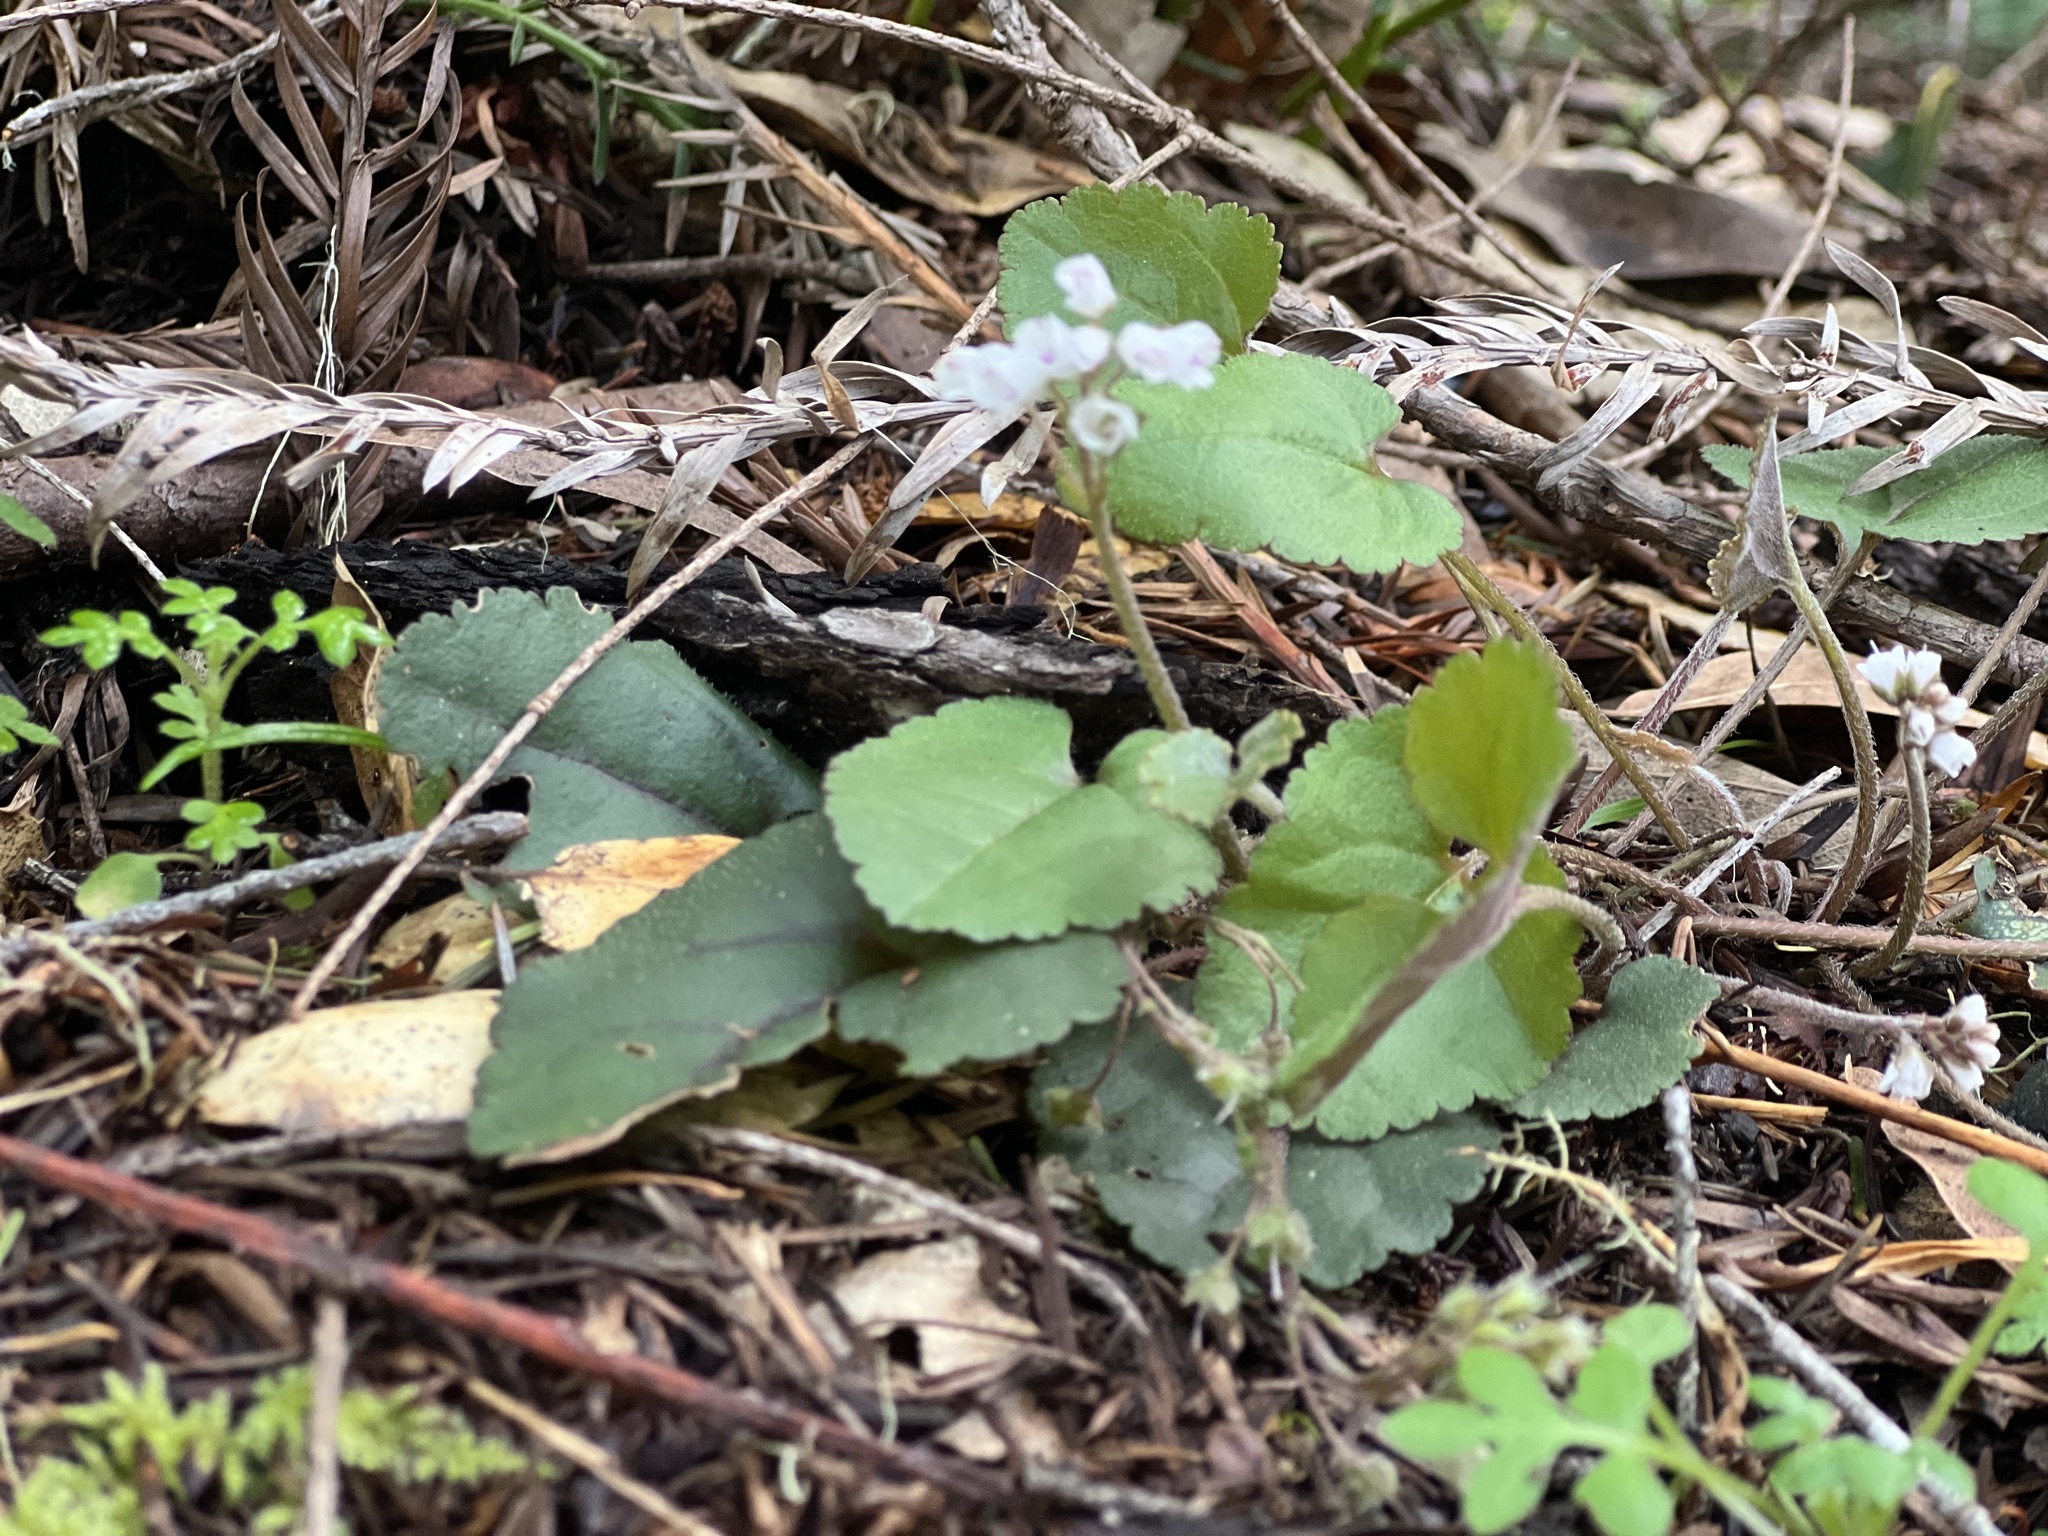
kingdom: Plantae
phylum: Tracheophyta
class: Magnoliopsida
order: Lamiales
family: Plantaginaceae
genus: Synthyris
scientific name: Synthyris cordata
